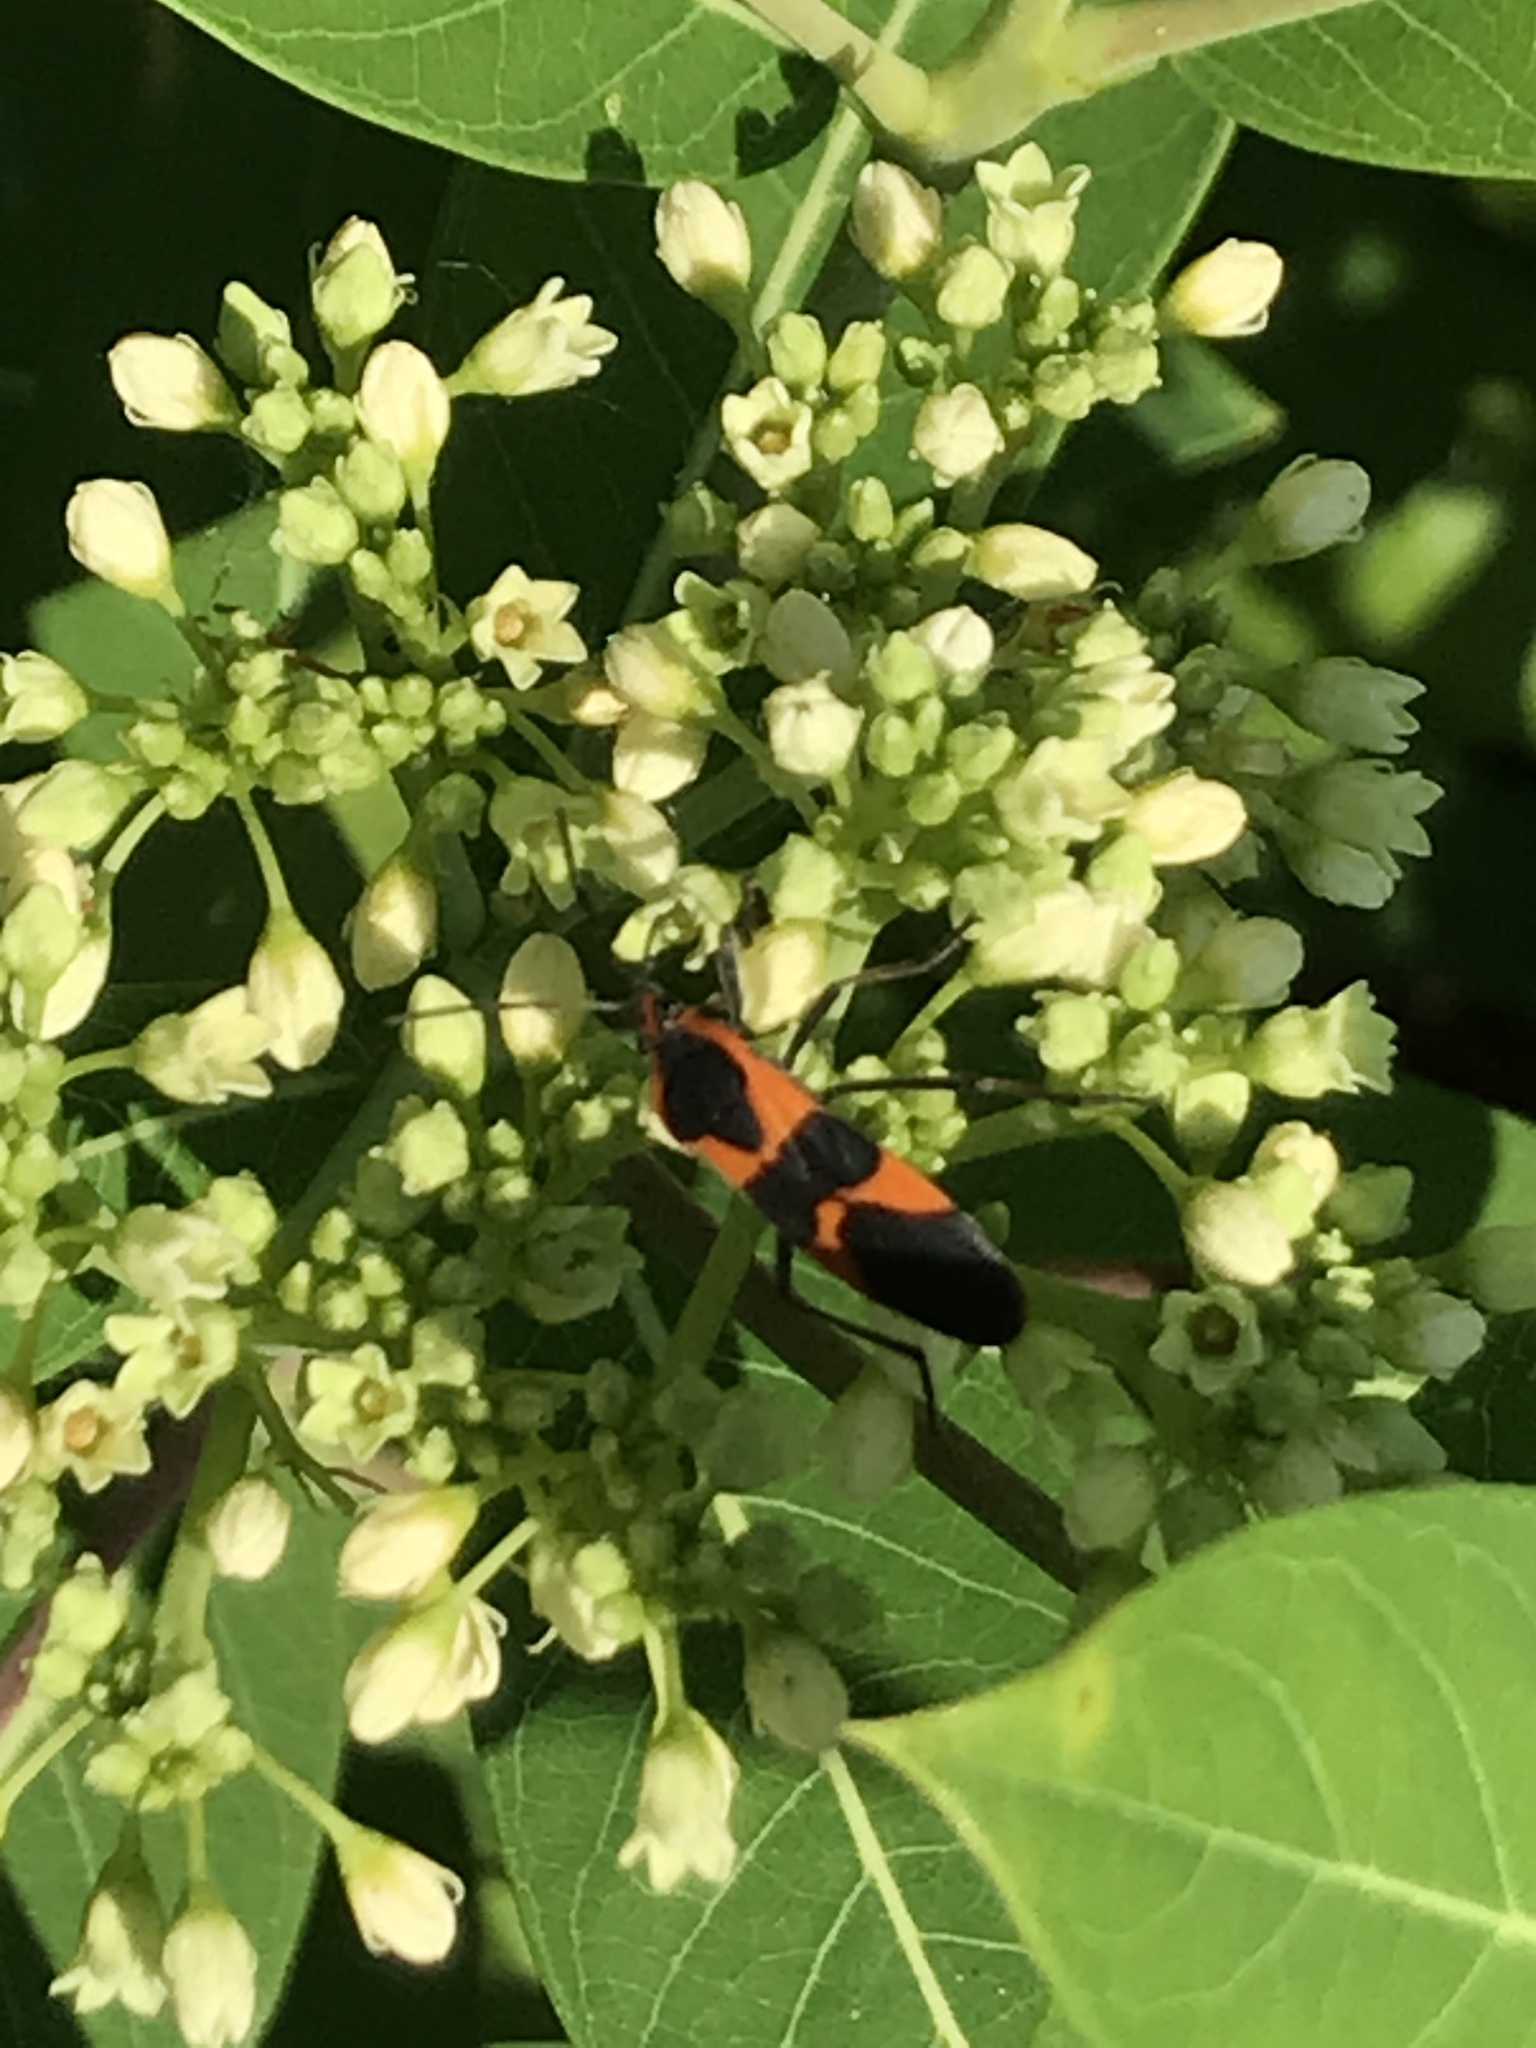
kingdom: Animalia
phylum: Arthropoda
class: Insecta
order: Hemiptera
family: Lygaeidae
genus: Oncopeltus
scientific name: Oncopeltus fasciatus
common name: Large milkweed bug
